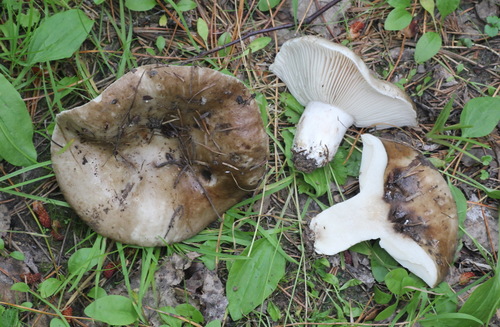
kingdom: Fungi
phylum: Basidiomycota
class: Agaricomycetes
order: Russulales
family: Russulaceae
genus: Russula
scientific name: Russula adusta
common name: Winecork brittlegill
